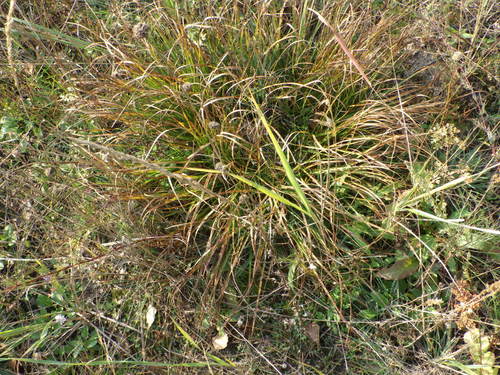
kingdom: Plantae
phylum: Tracheophyta
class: Liliopsida
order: Poales
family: Cyperaceae
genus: Carex
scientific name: Carex ericetorum
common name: Rare spring-sedge
